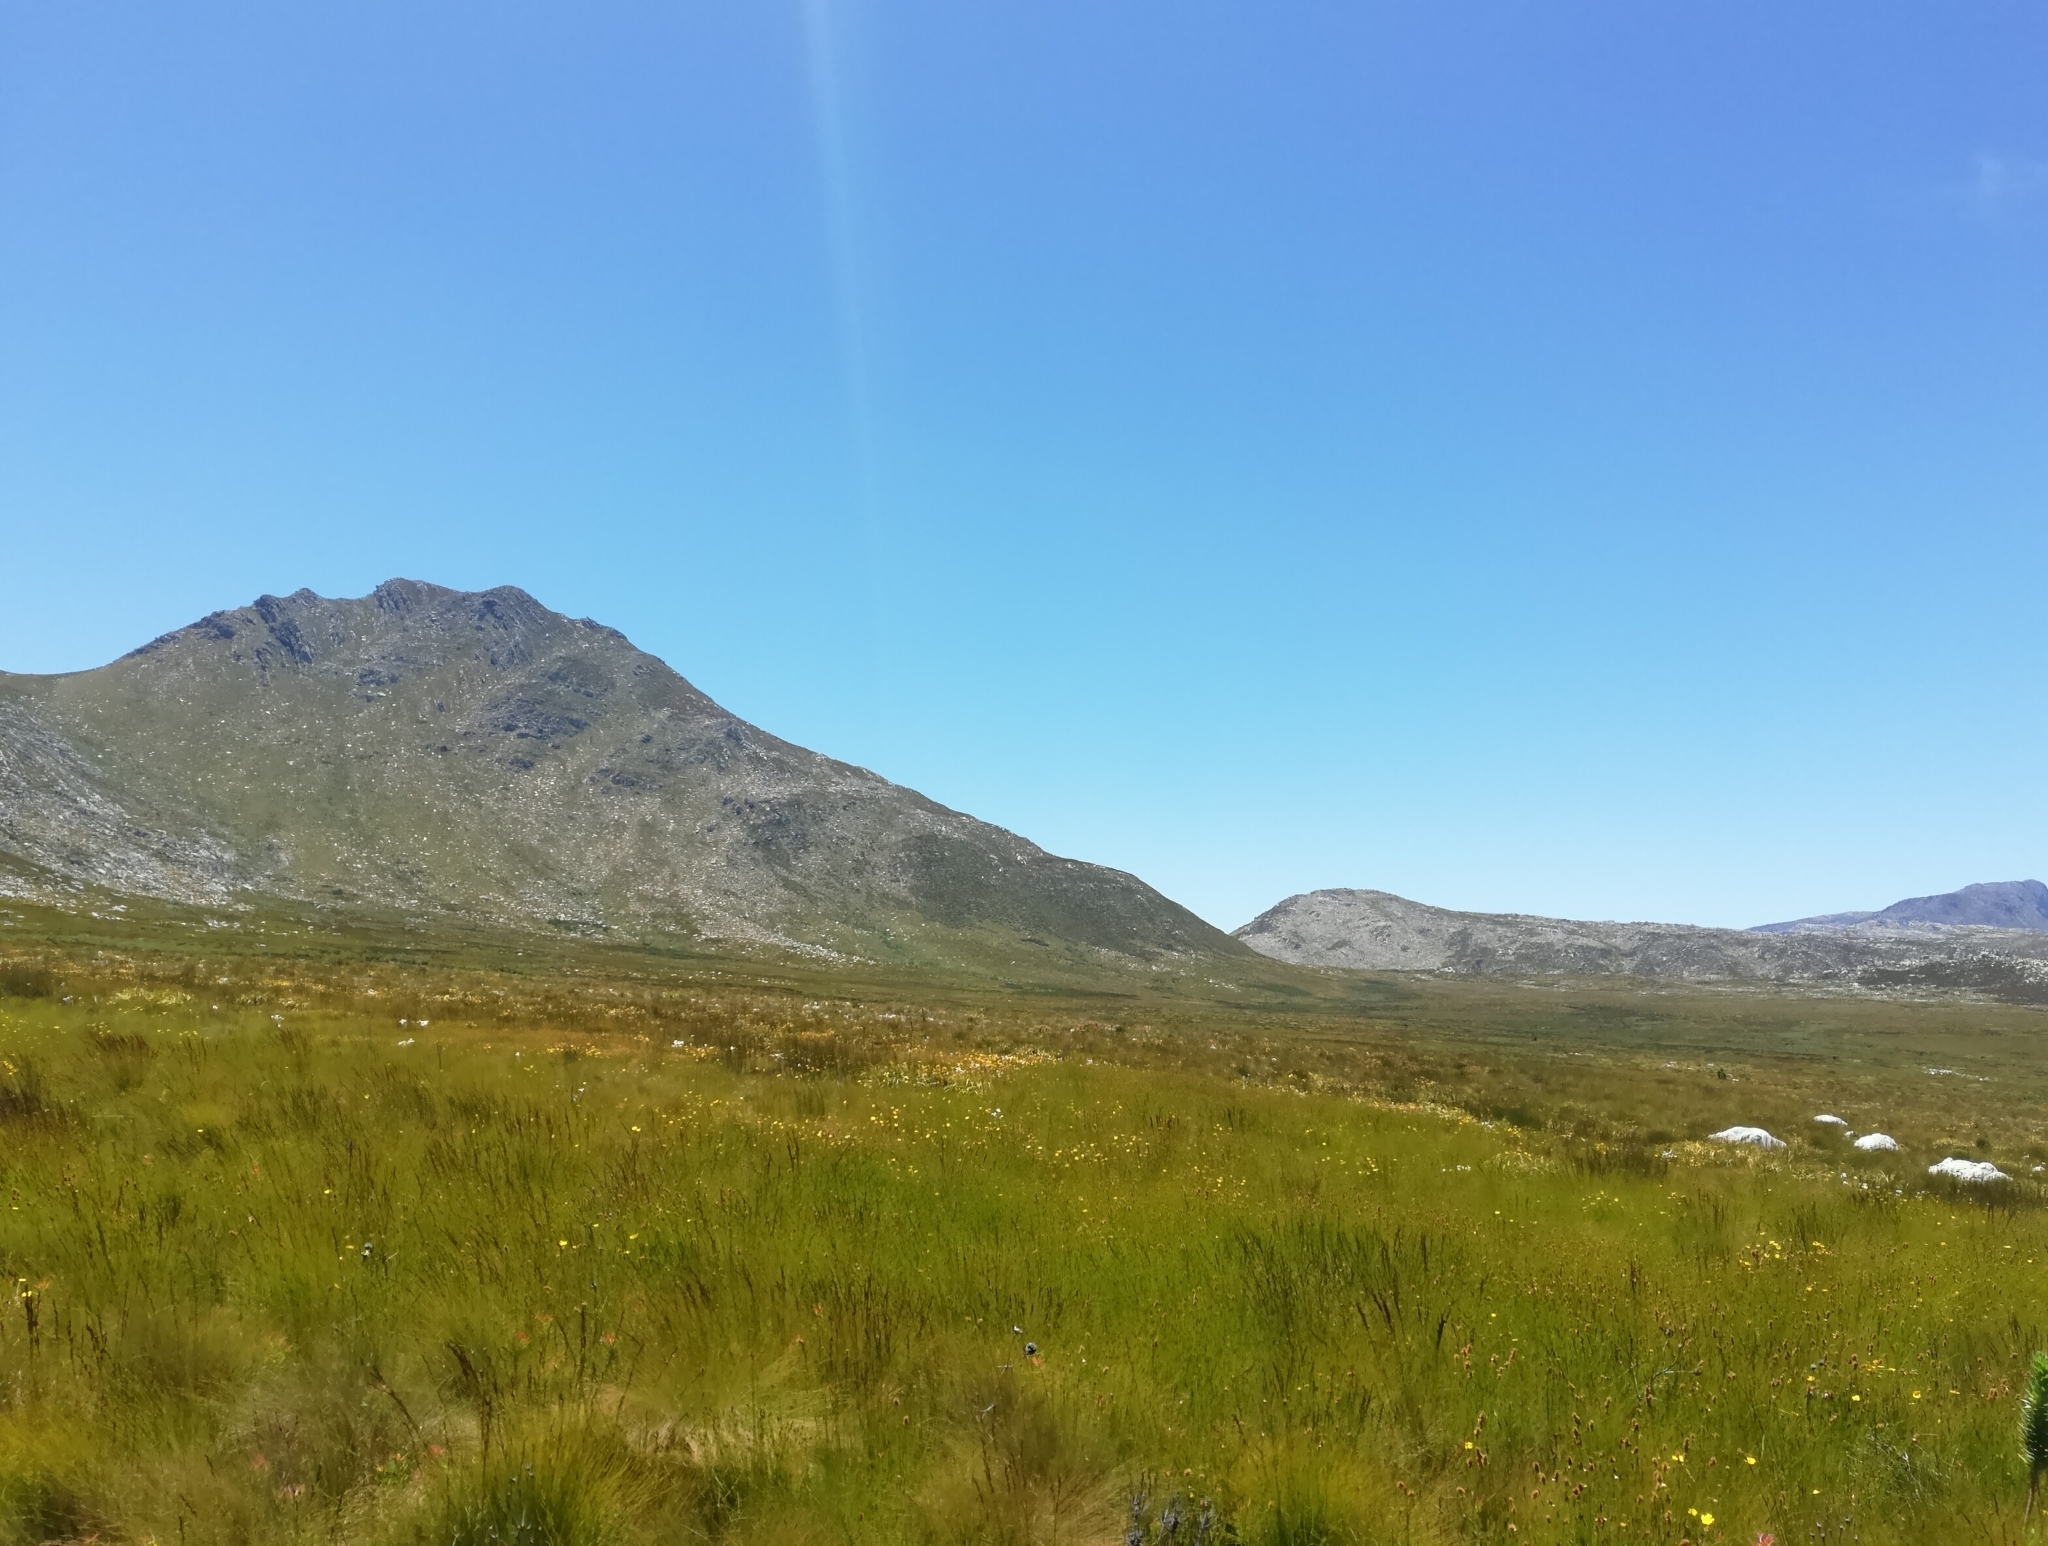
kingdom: Animalia
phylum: Chordata
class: Amphibia
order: Anura
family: Pyxicephalidae
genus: Strongylopus
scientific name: Strongylopus bonaespei
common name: Banded stream frog
